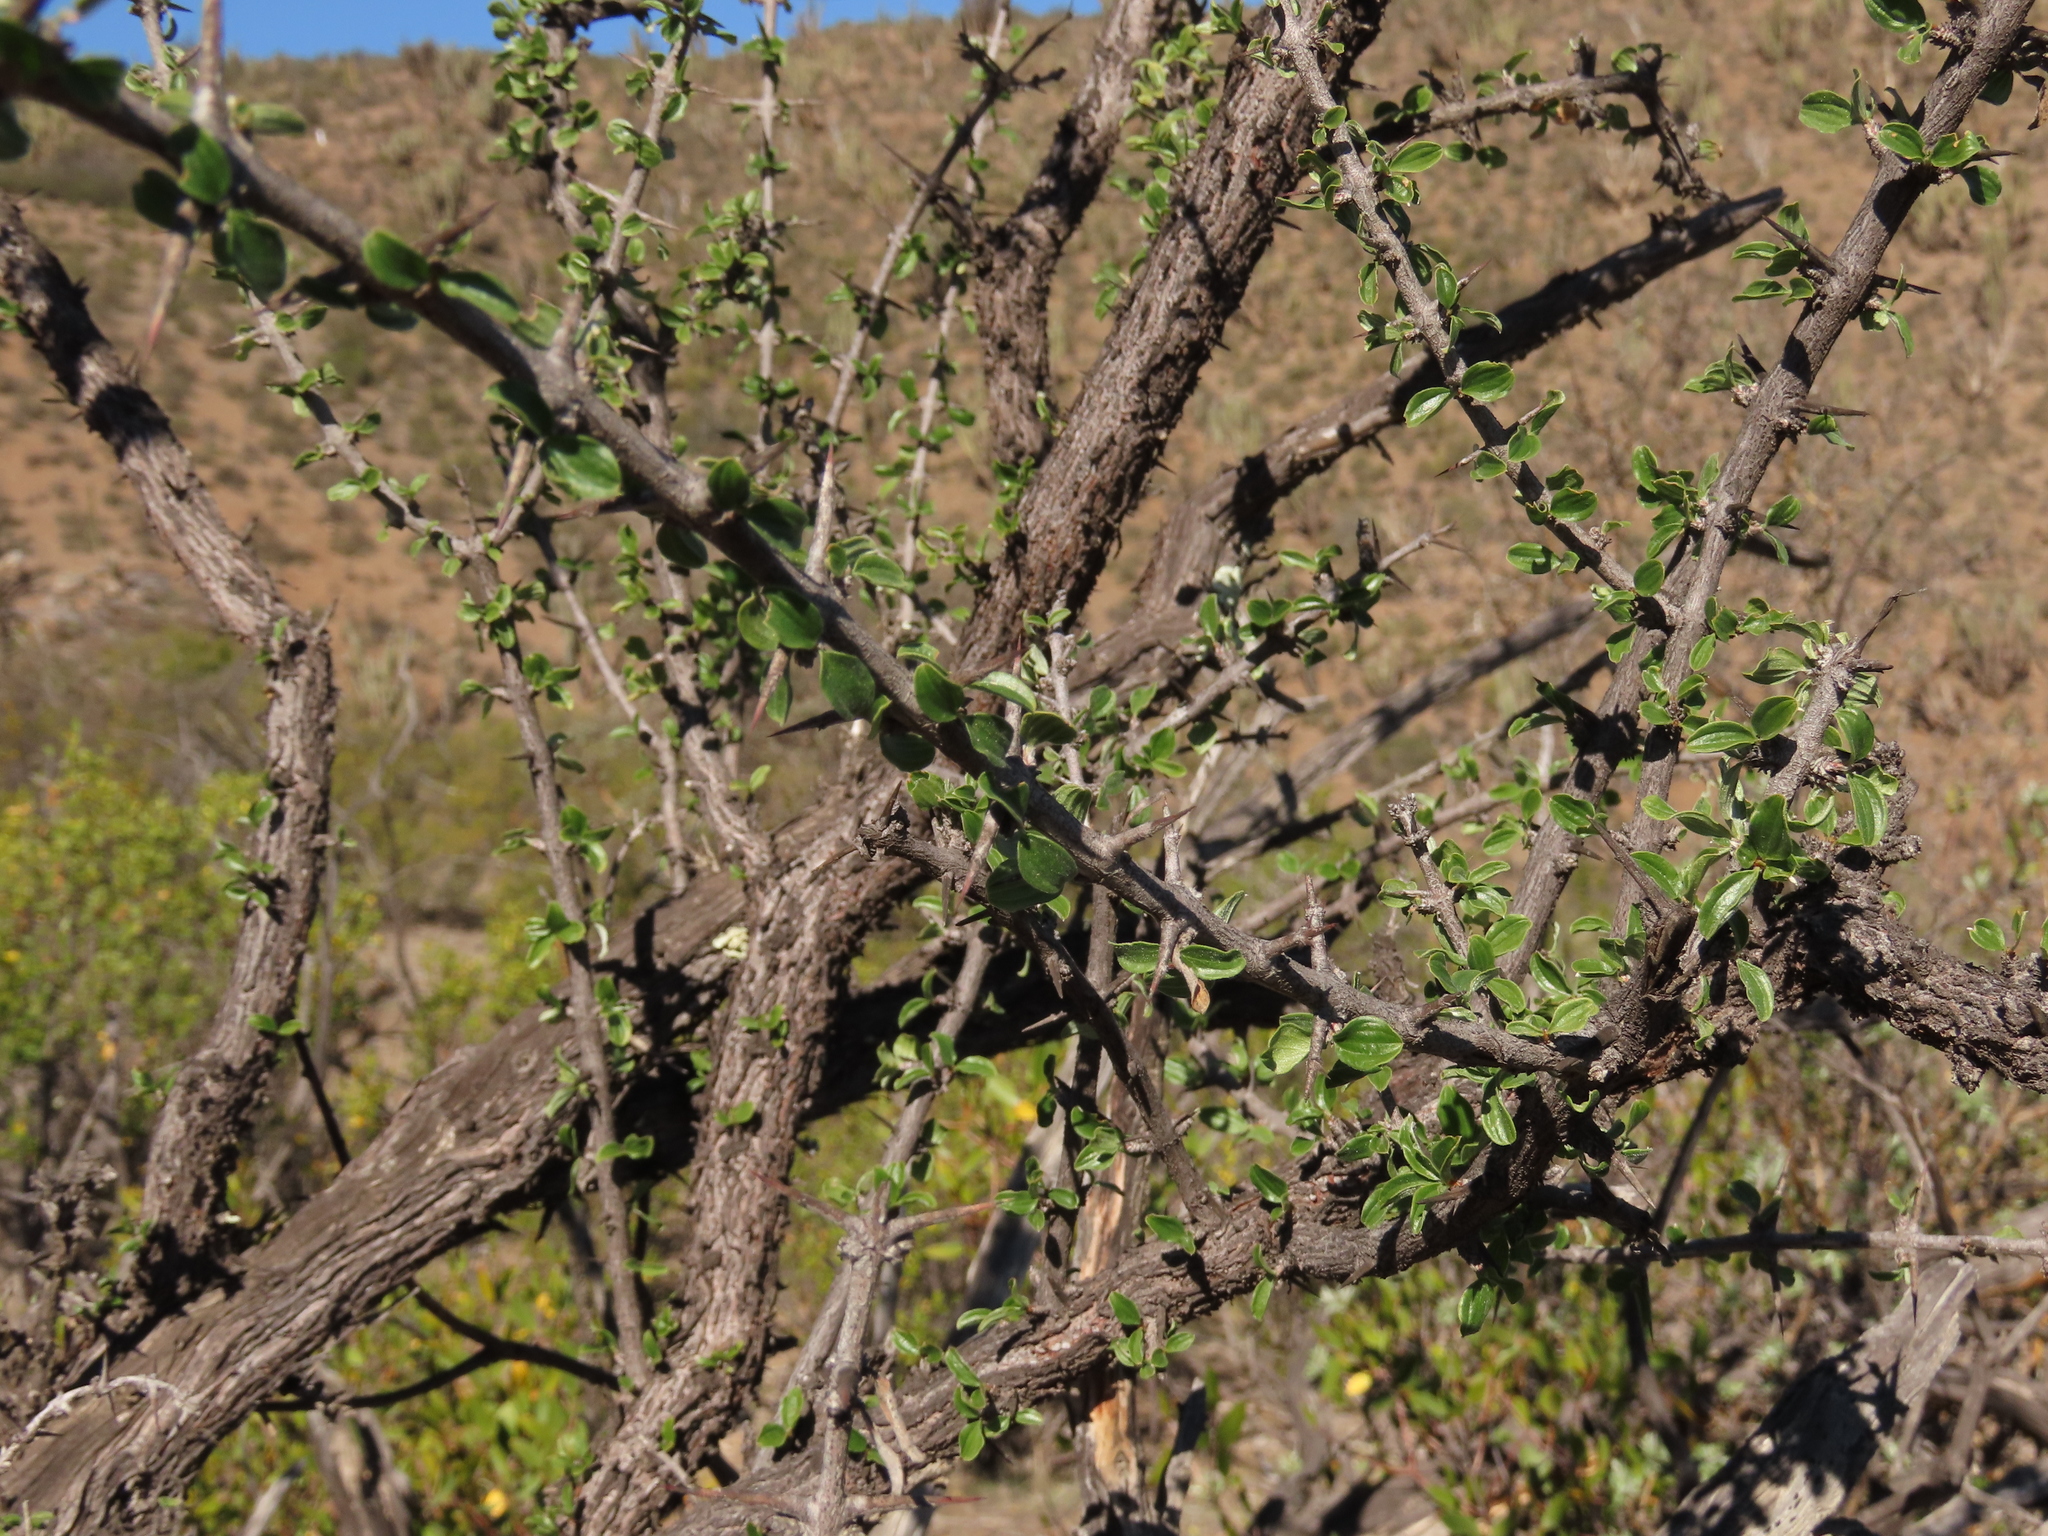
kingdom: Plantae
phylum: Tracheophyta
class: Magnoliopsida
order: Rosales
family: Rhamnaceae
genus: Trevoa
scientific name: Trevoa quinquenervia
